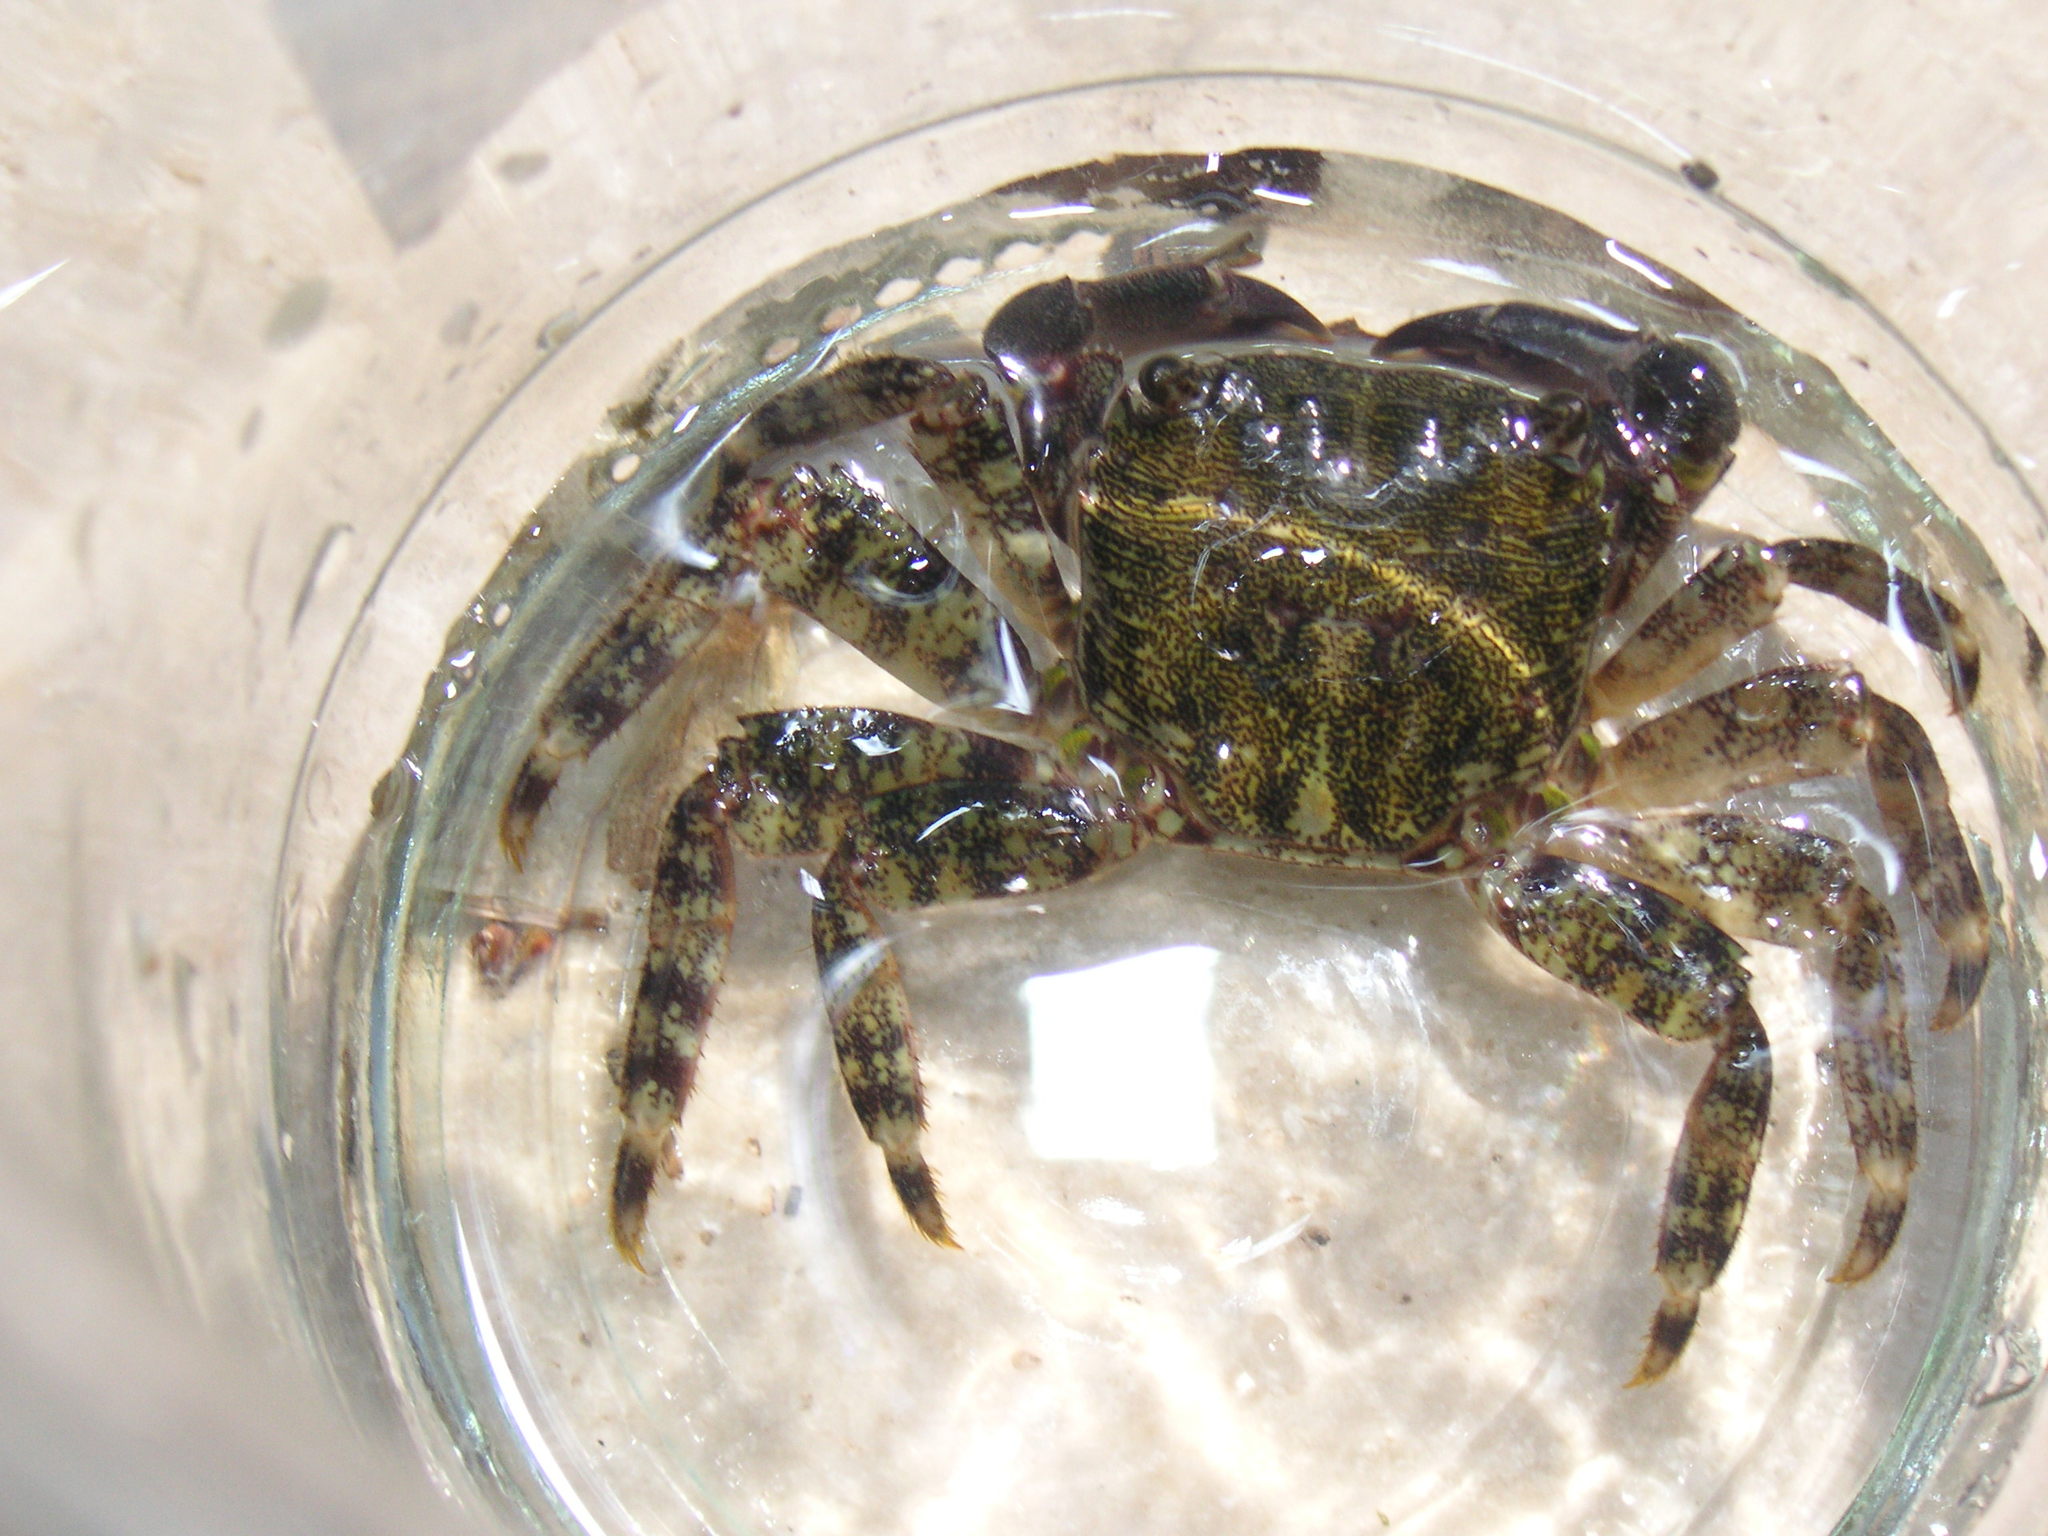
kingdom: Animalia
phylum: Arthropoda
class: Malacostraca
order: Decapoda
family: Grapsidae
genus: Pachygrapsus
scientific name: Pachygrapsus marmoratus
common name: Marbled rock crab
